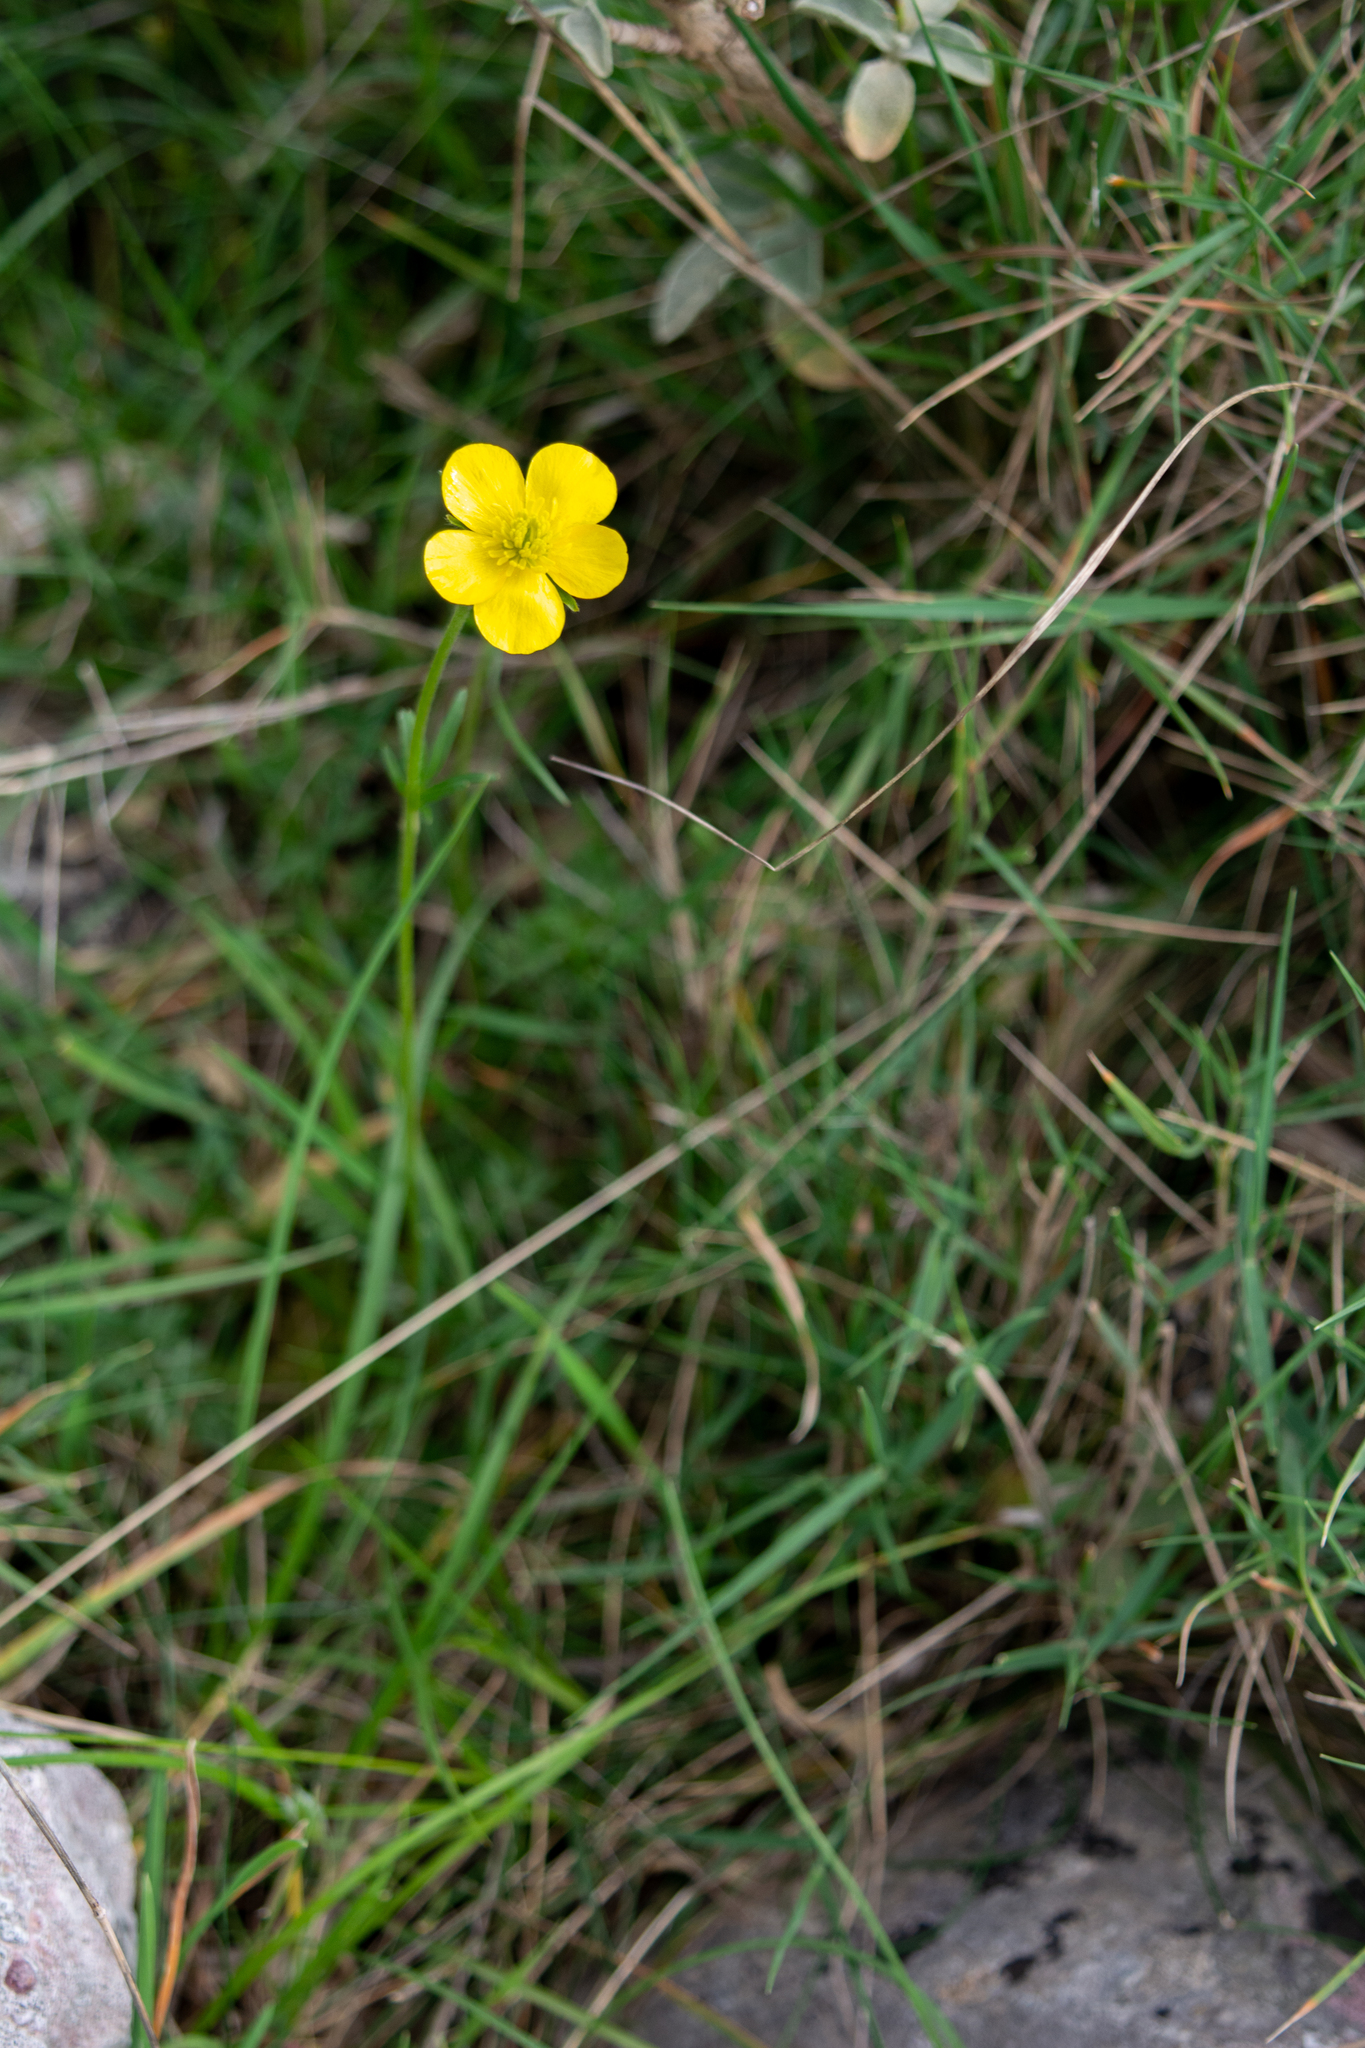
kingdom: Plantae
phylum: Tracheophyta
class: Magnoliopsida
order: Ranunculales
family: Ranunculaceae
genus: Ficaria
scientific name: Ficaria verna
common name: Lesser celandine
